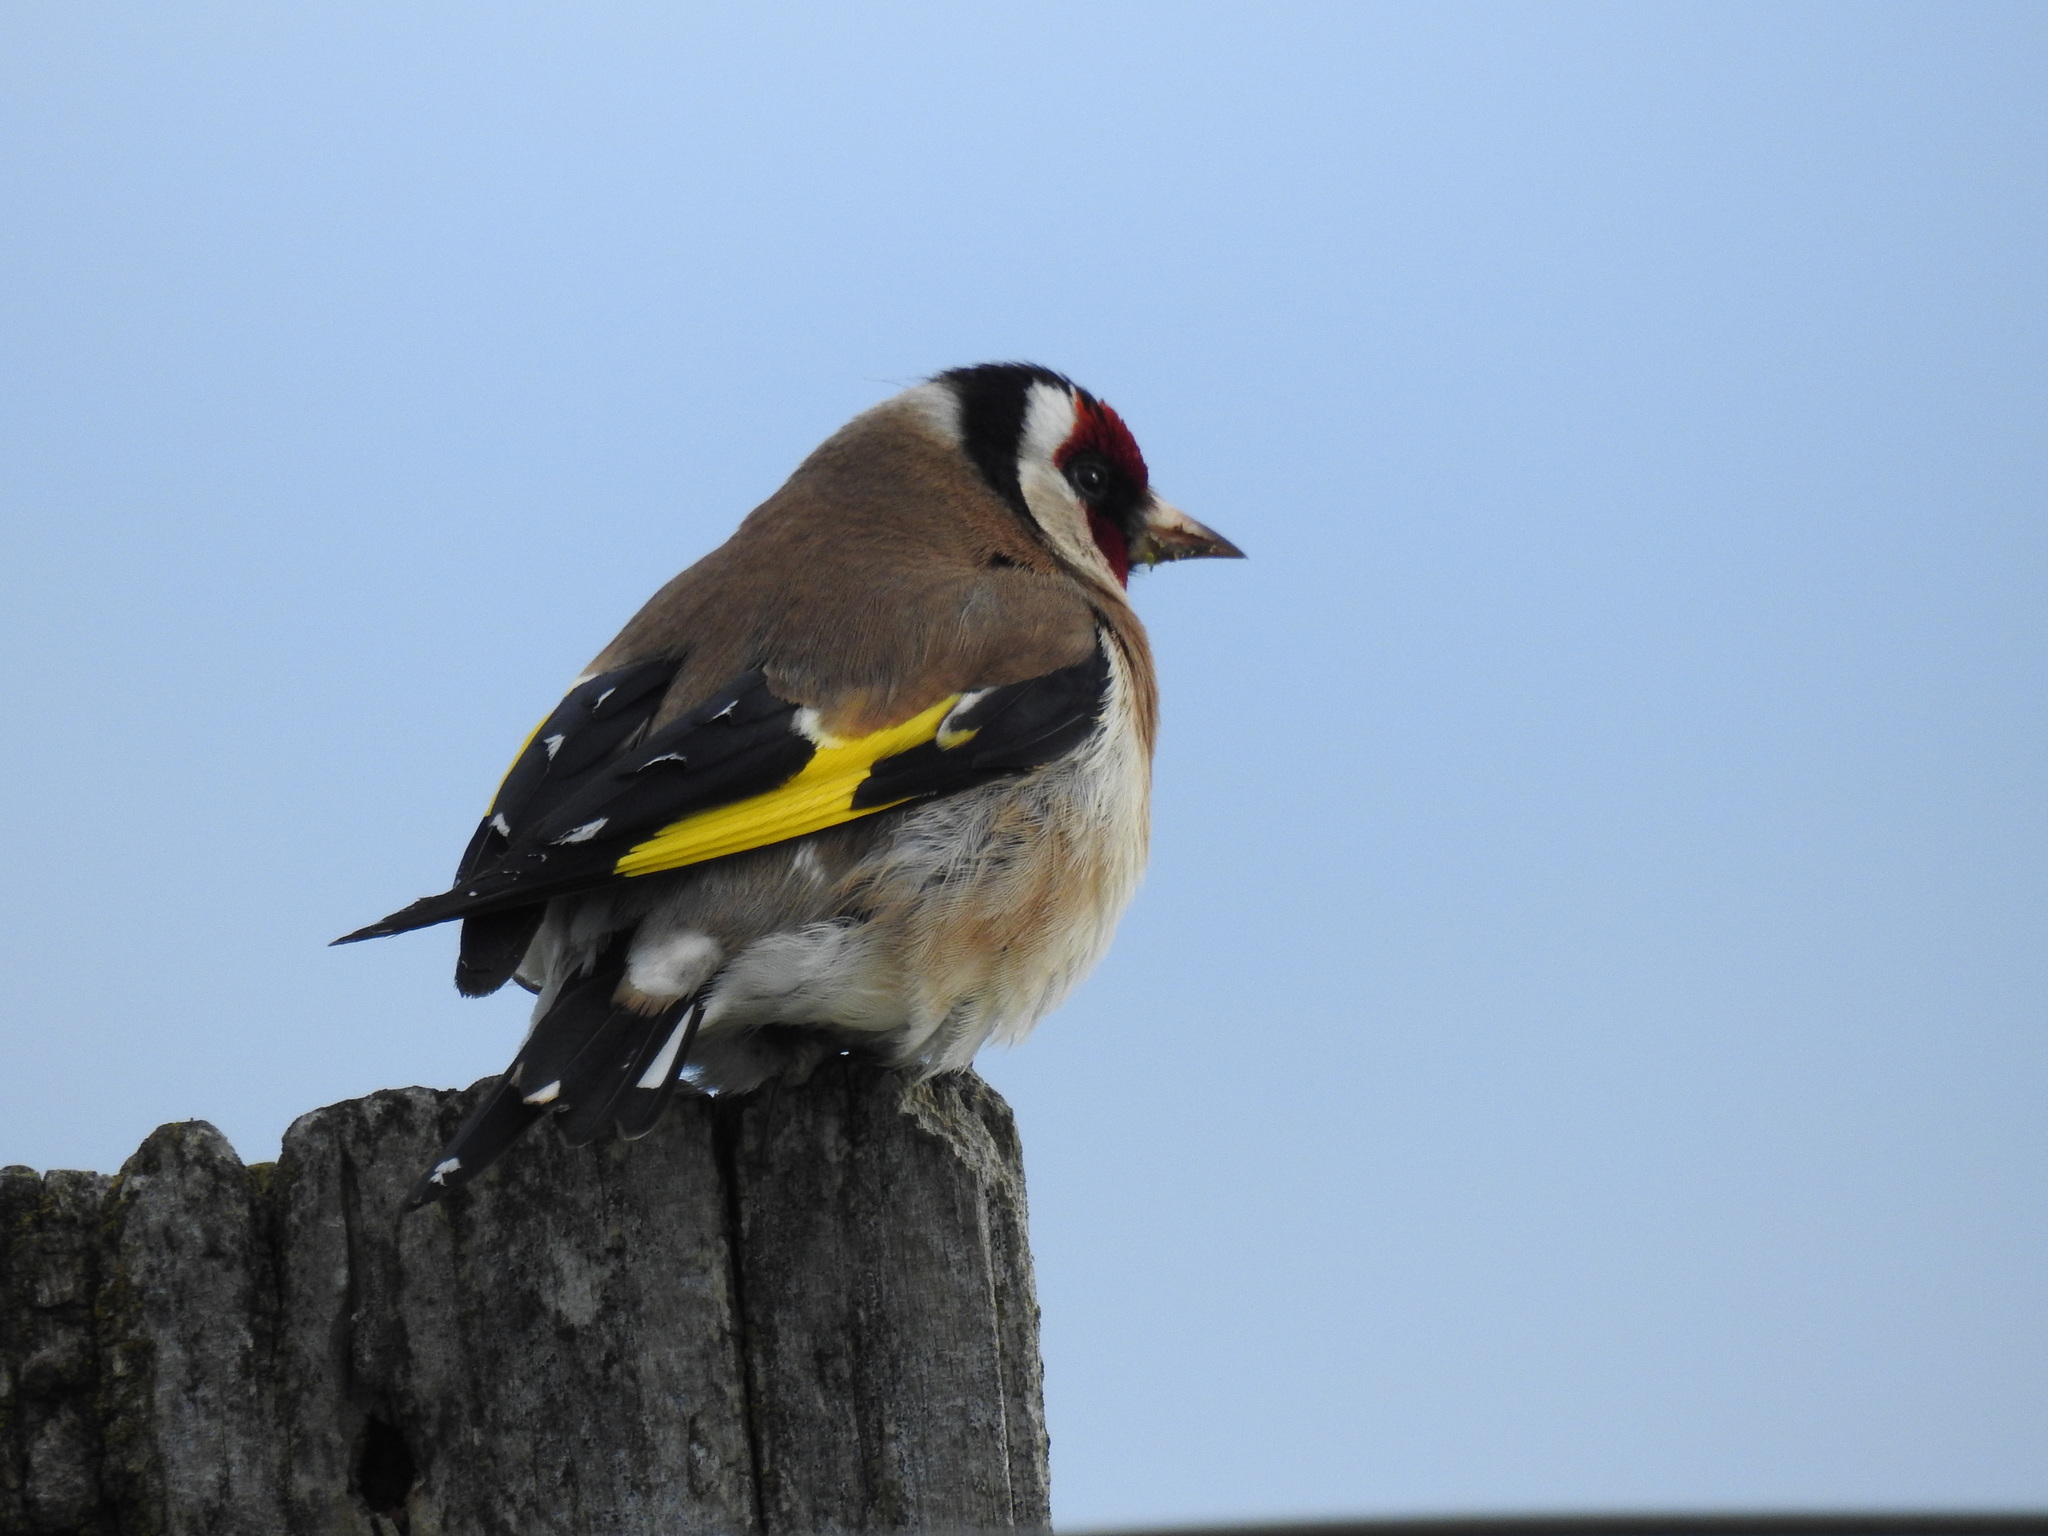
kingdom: Animalia
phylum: Chordata
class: Aves
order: Passeriformes
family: Fringillidae
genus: Carduelis
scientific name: Carduelis carduelis
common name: European goldfinch
